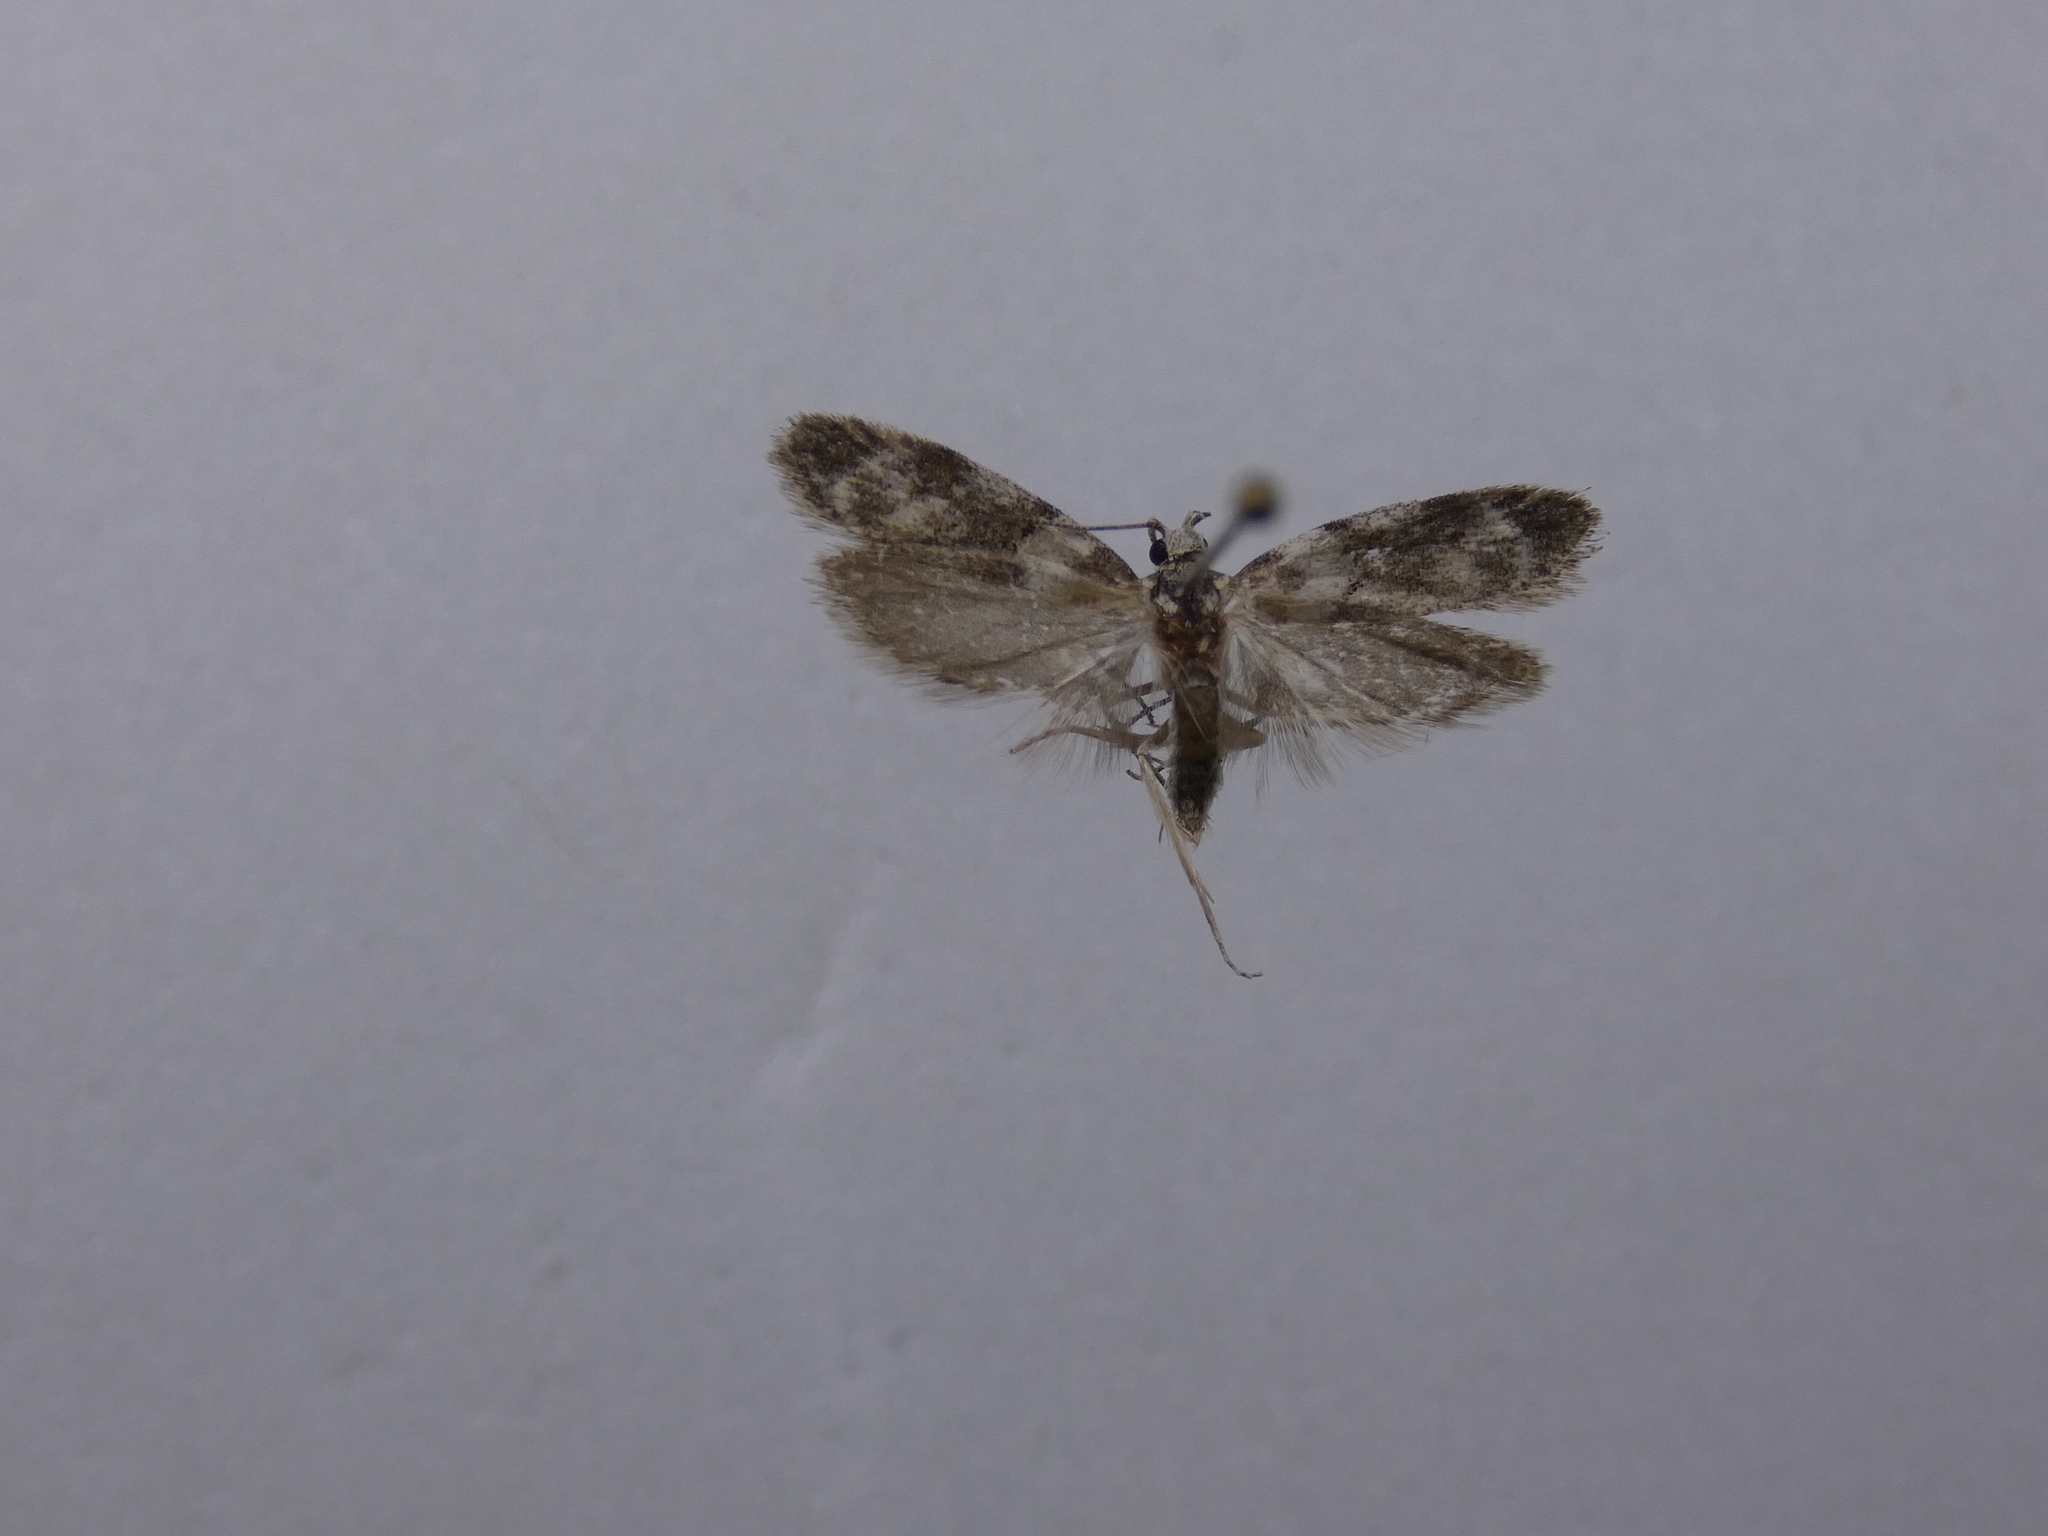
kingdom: Animalia
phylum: Arthropoda
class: Insecta
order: Lepidoptera
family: Oecophoridae
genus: Trachypepla
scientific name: Trachypepla galaxias
